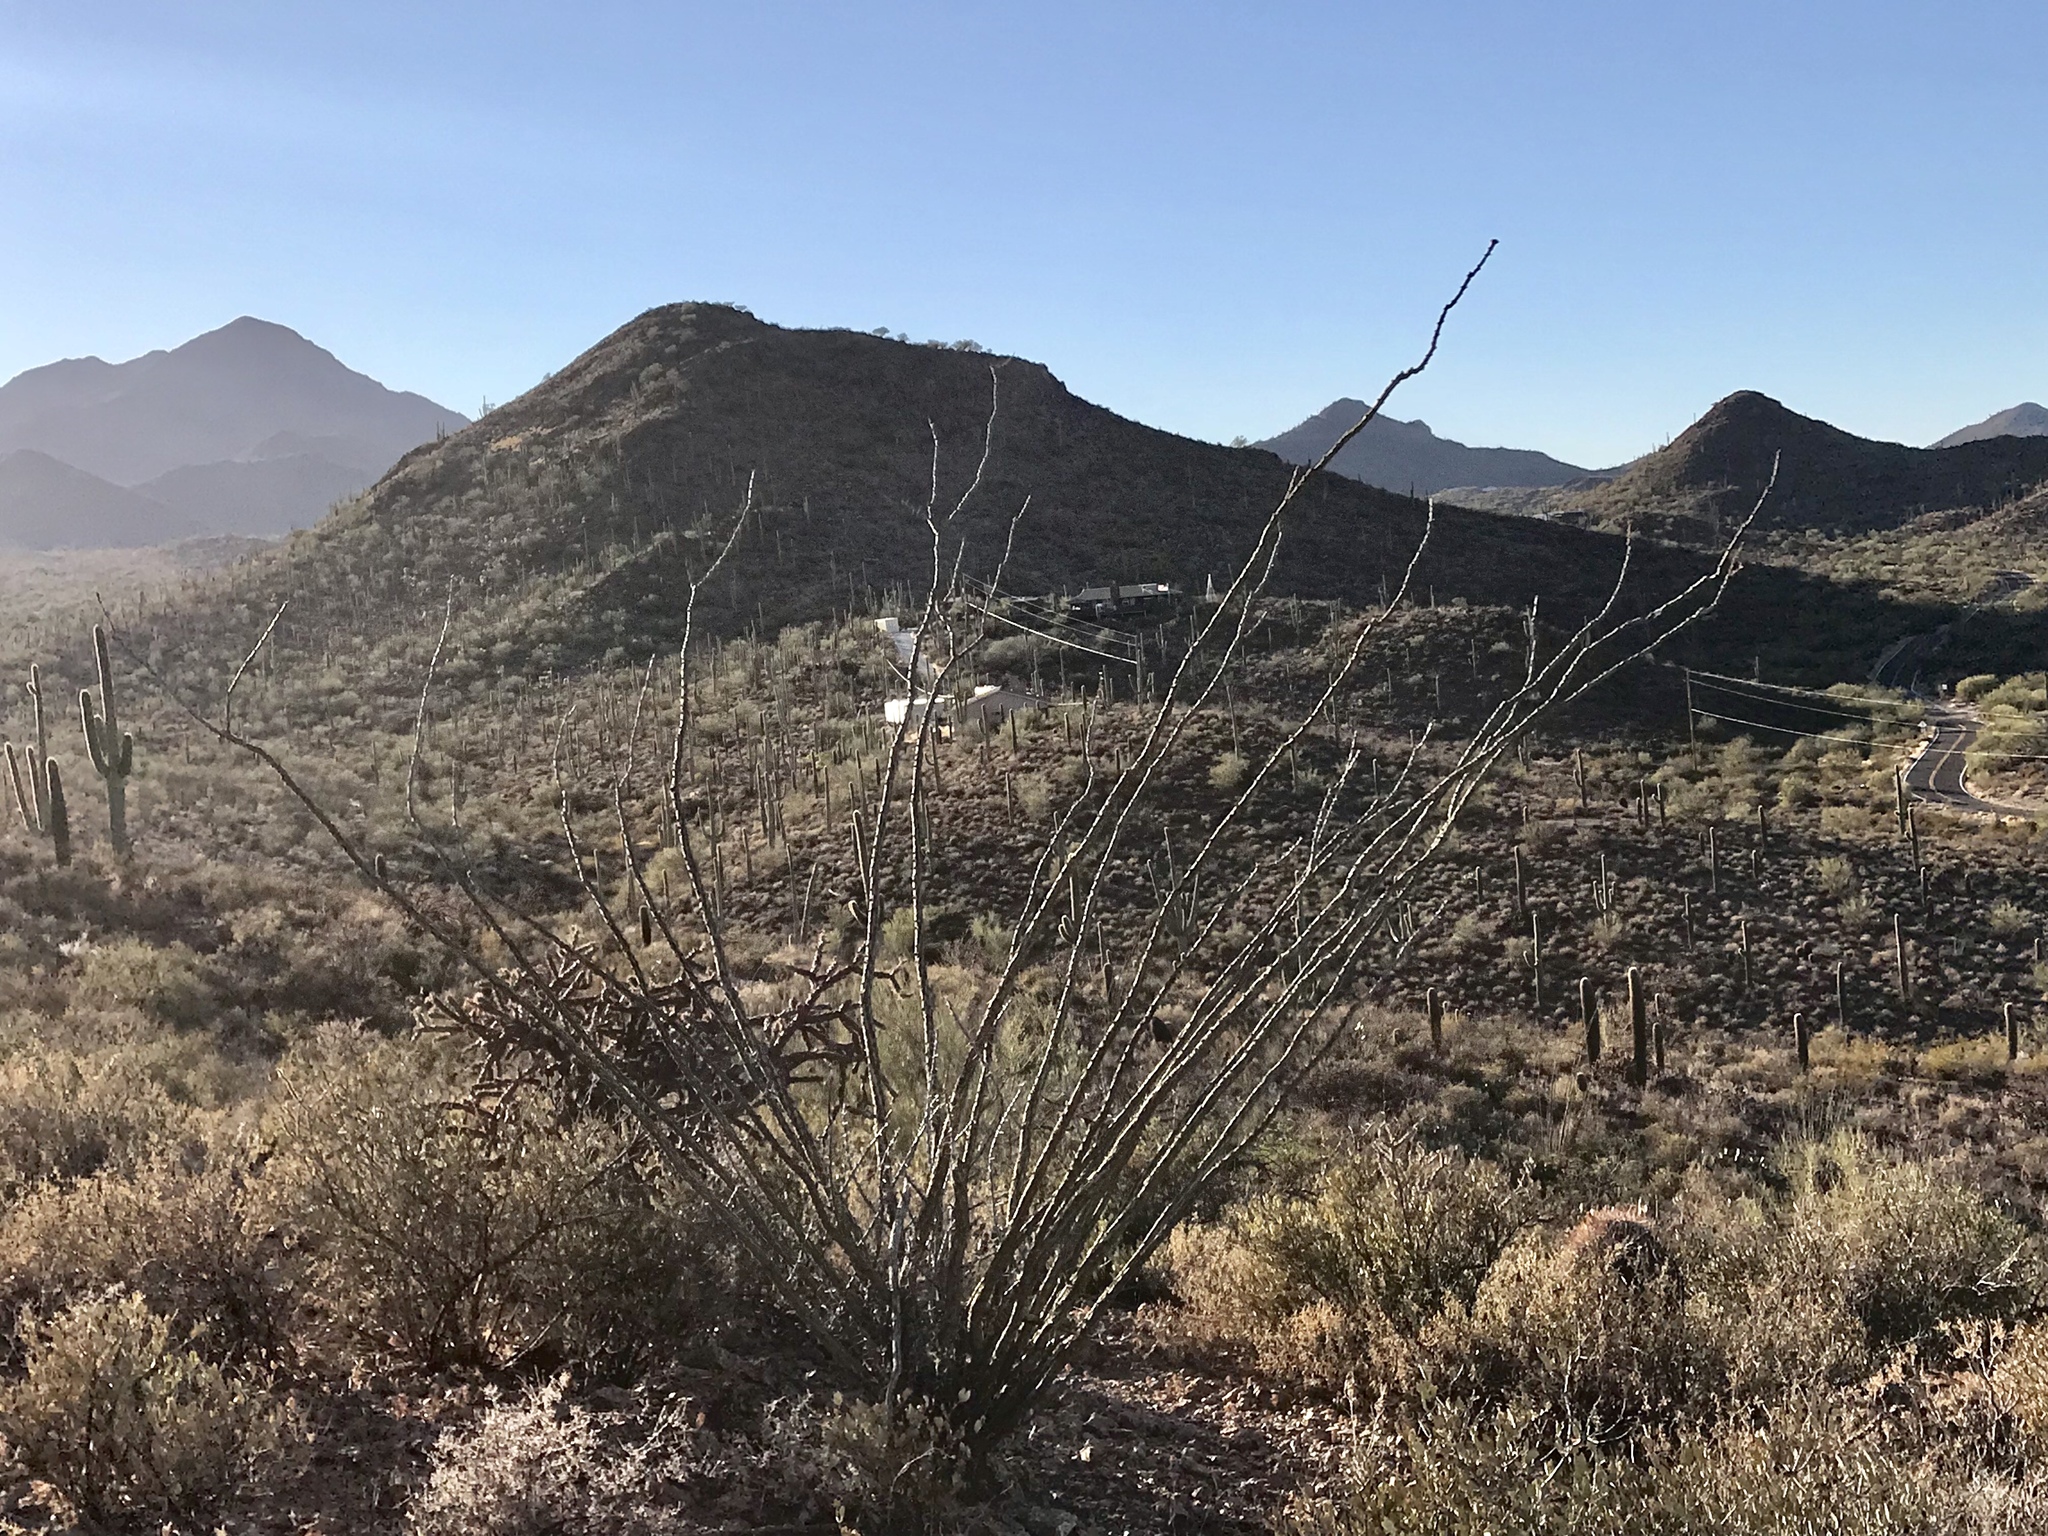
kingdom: Plantae
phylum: Tracheophyta
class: Magnoliopsida
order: Ericales
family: Fouquieriaceae
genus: Fouquieria
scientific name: Fouquieria splendens
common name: Vine-cactus
